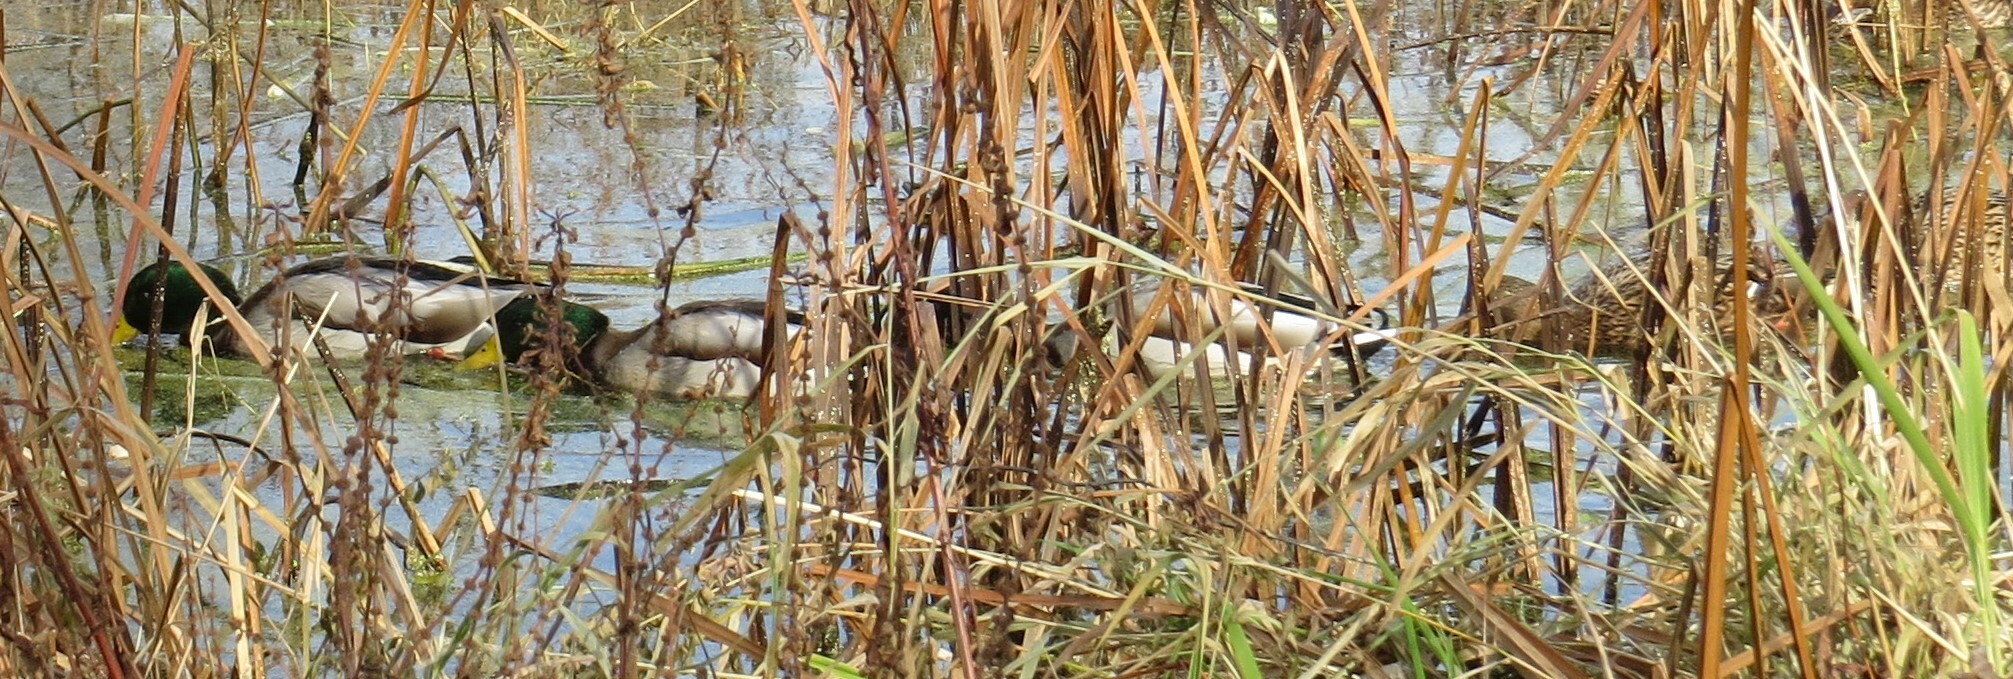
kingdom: Animalia
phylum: Chordata
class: Aves
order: Anseriformes
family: Anatidae
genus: Anas
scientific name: Anas platyrhynchos
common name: Mallard
